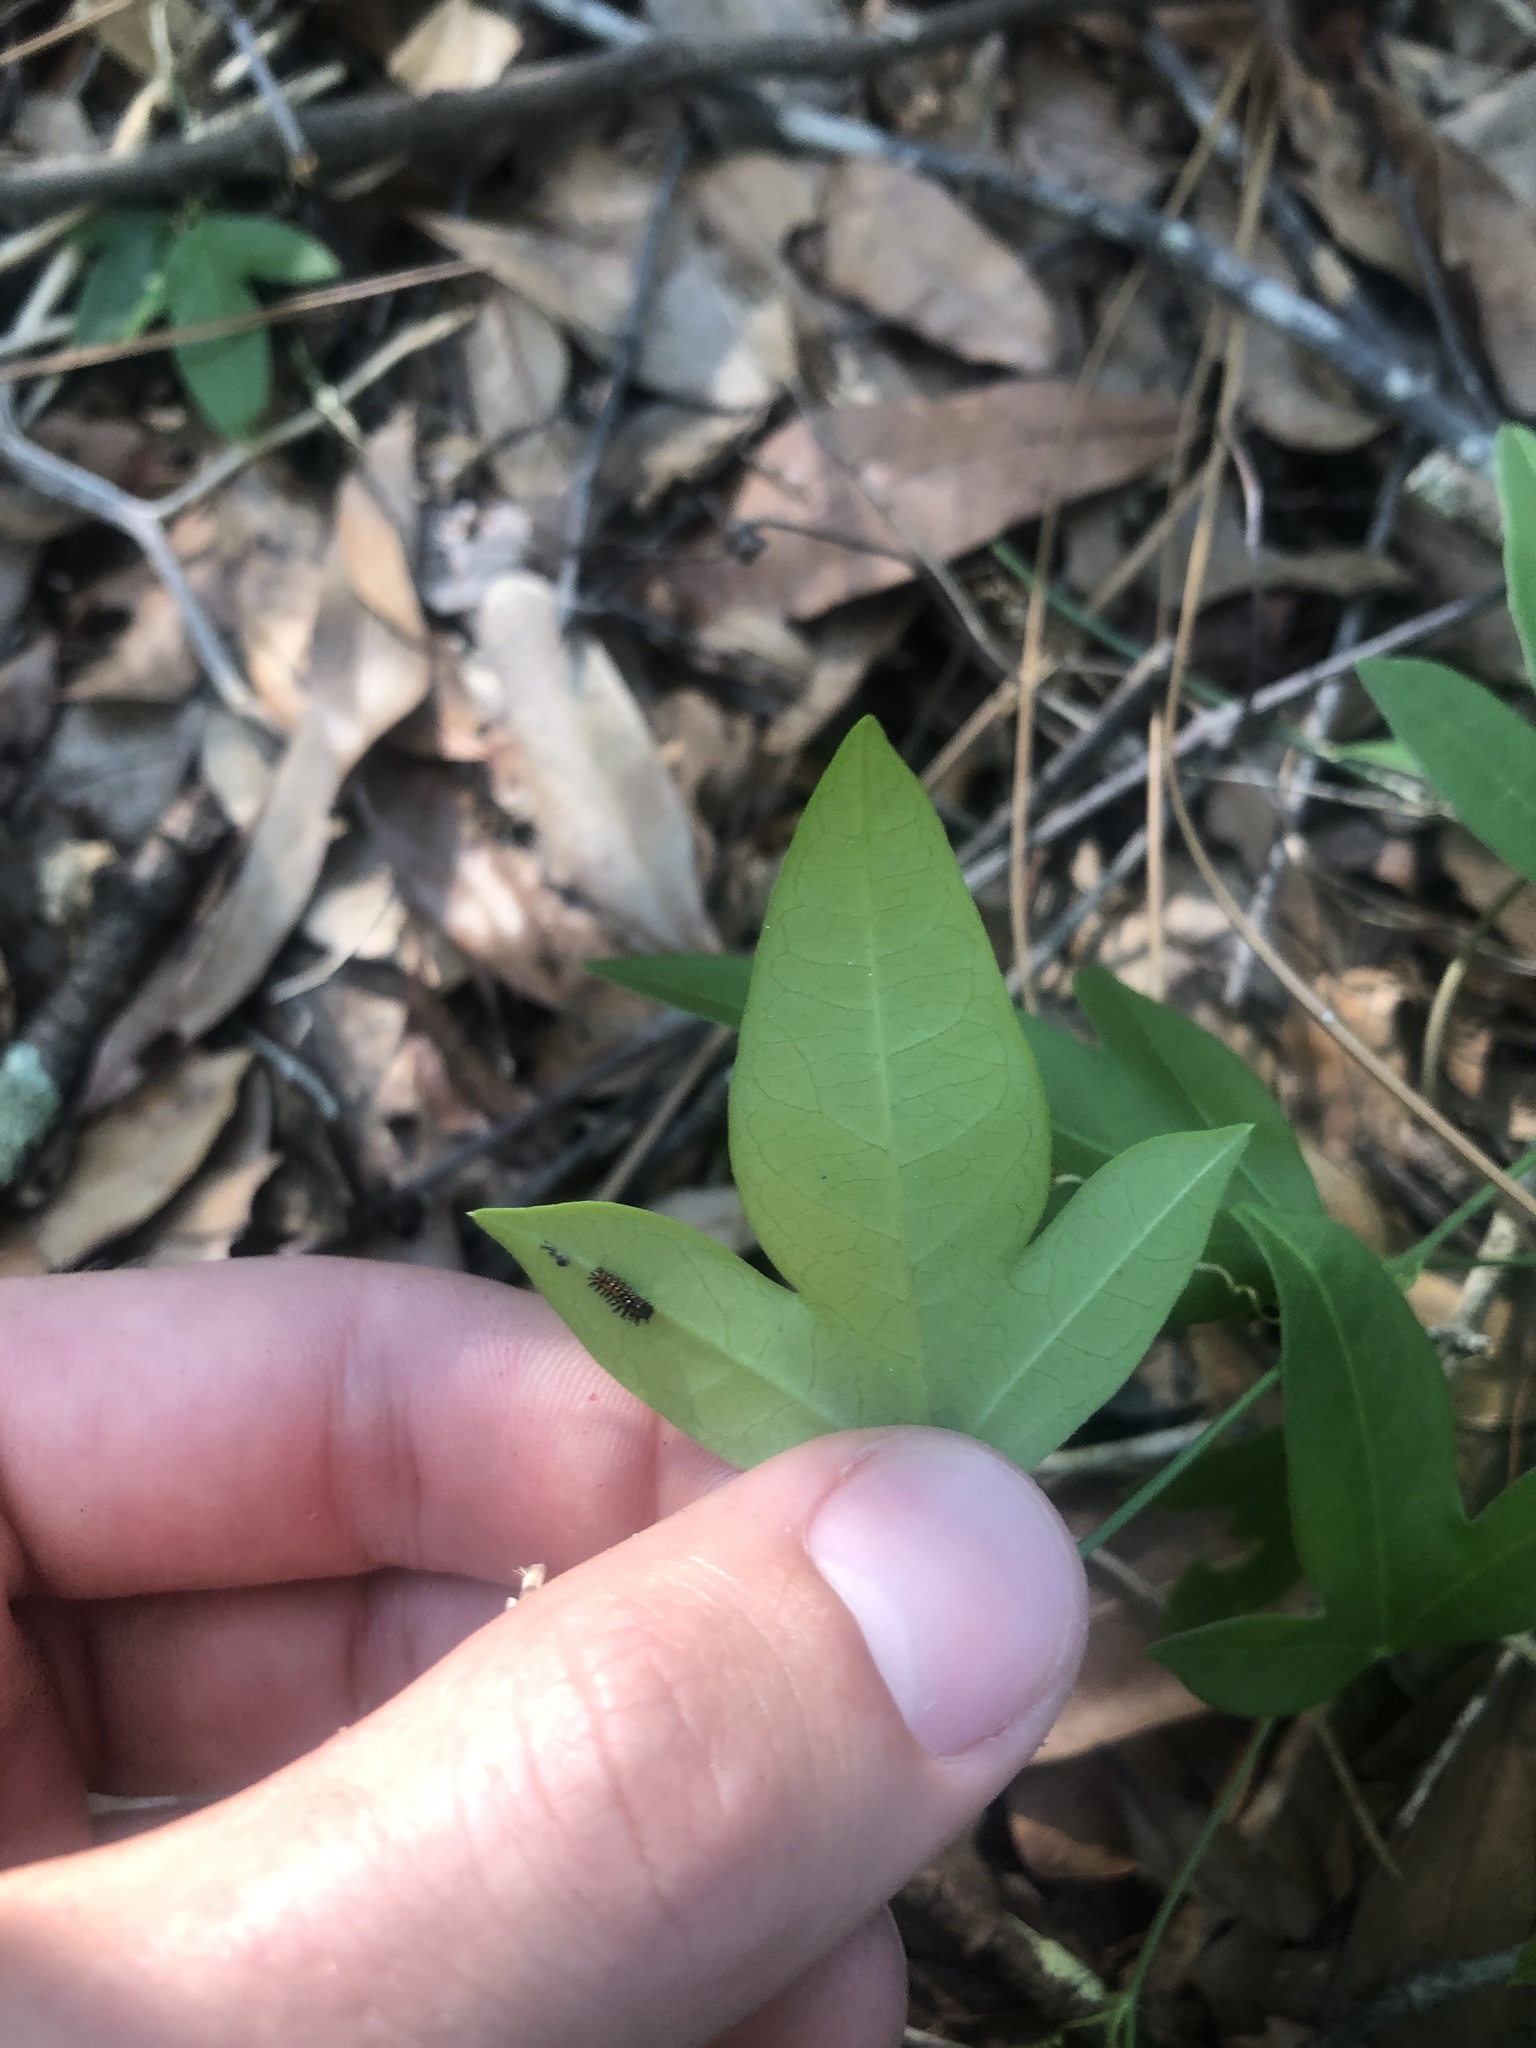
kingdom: Plantae
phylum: Tracheophyta
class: Magnoliopsida
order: Malpighiales
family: Passifloraceae
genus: Passiflora
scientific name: Passiflora pallida
